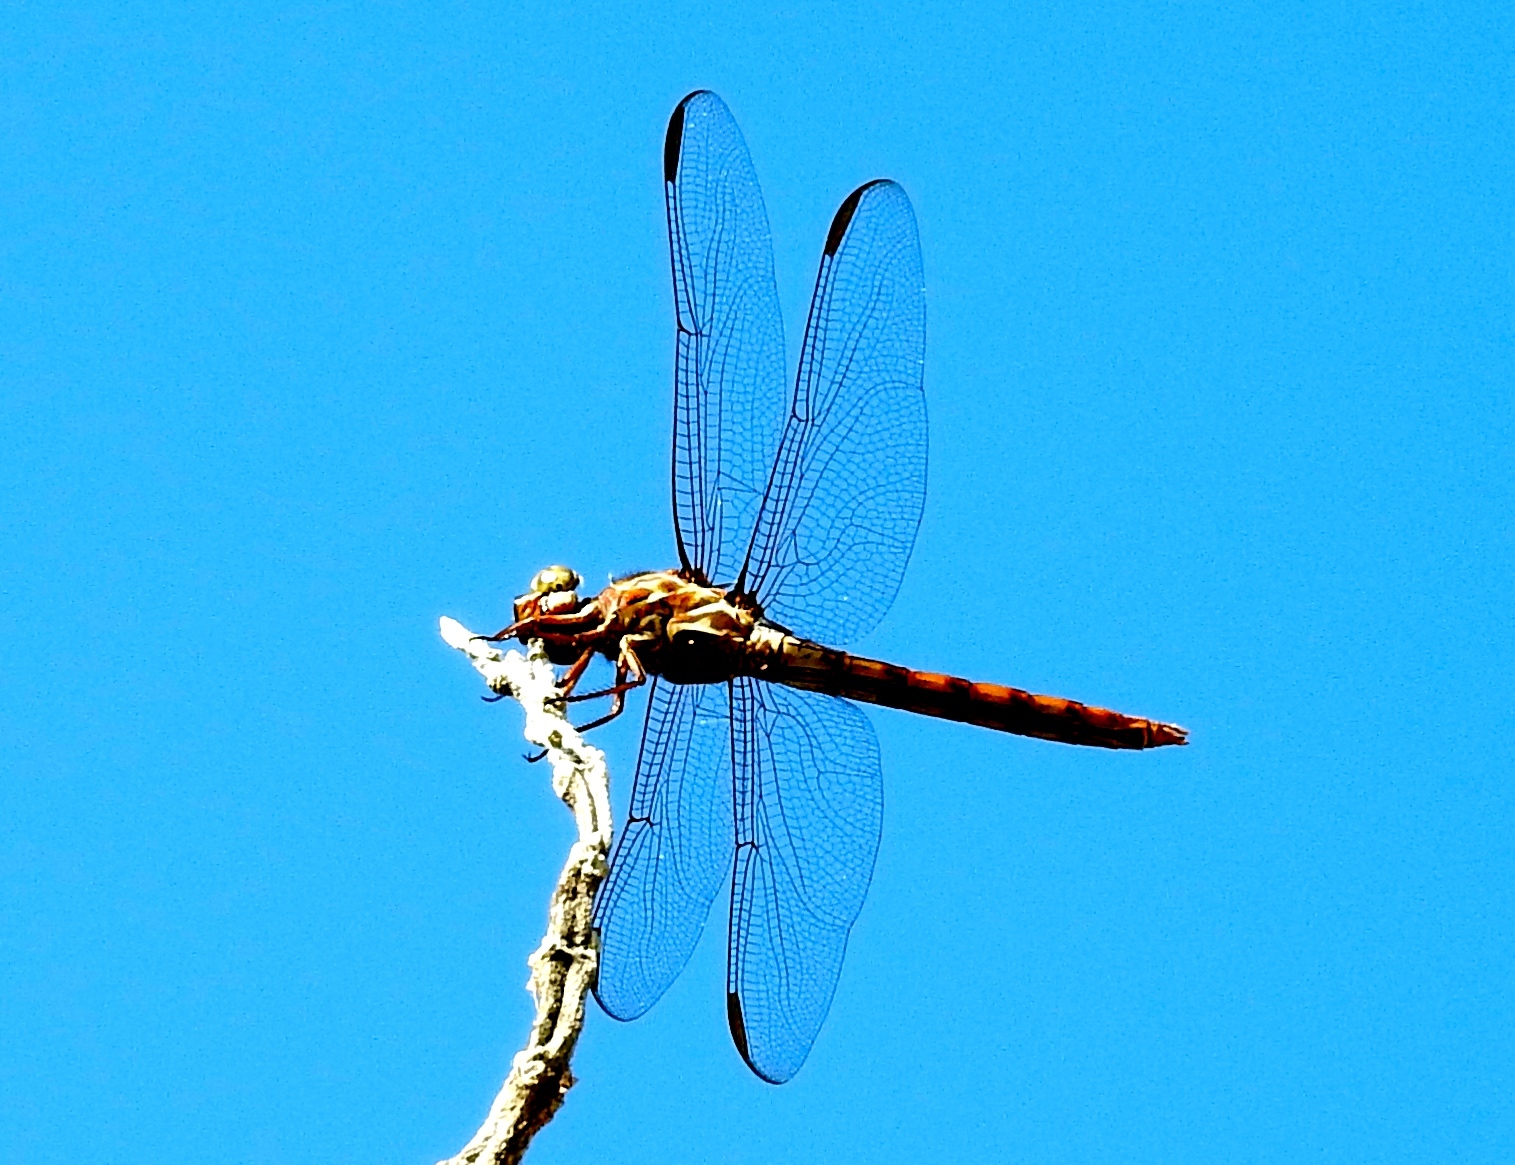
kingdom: Animalia
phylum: Arthropoda
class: Insecta
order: Odonata
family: Libellulidae
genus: Orthemis
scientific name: Orthemis ferruginea
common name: Roseate skimmer
